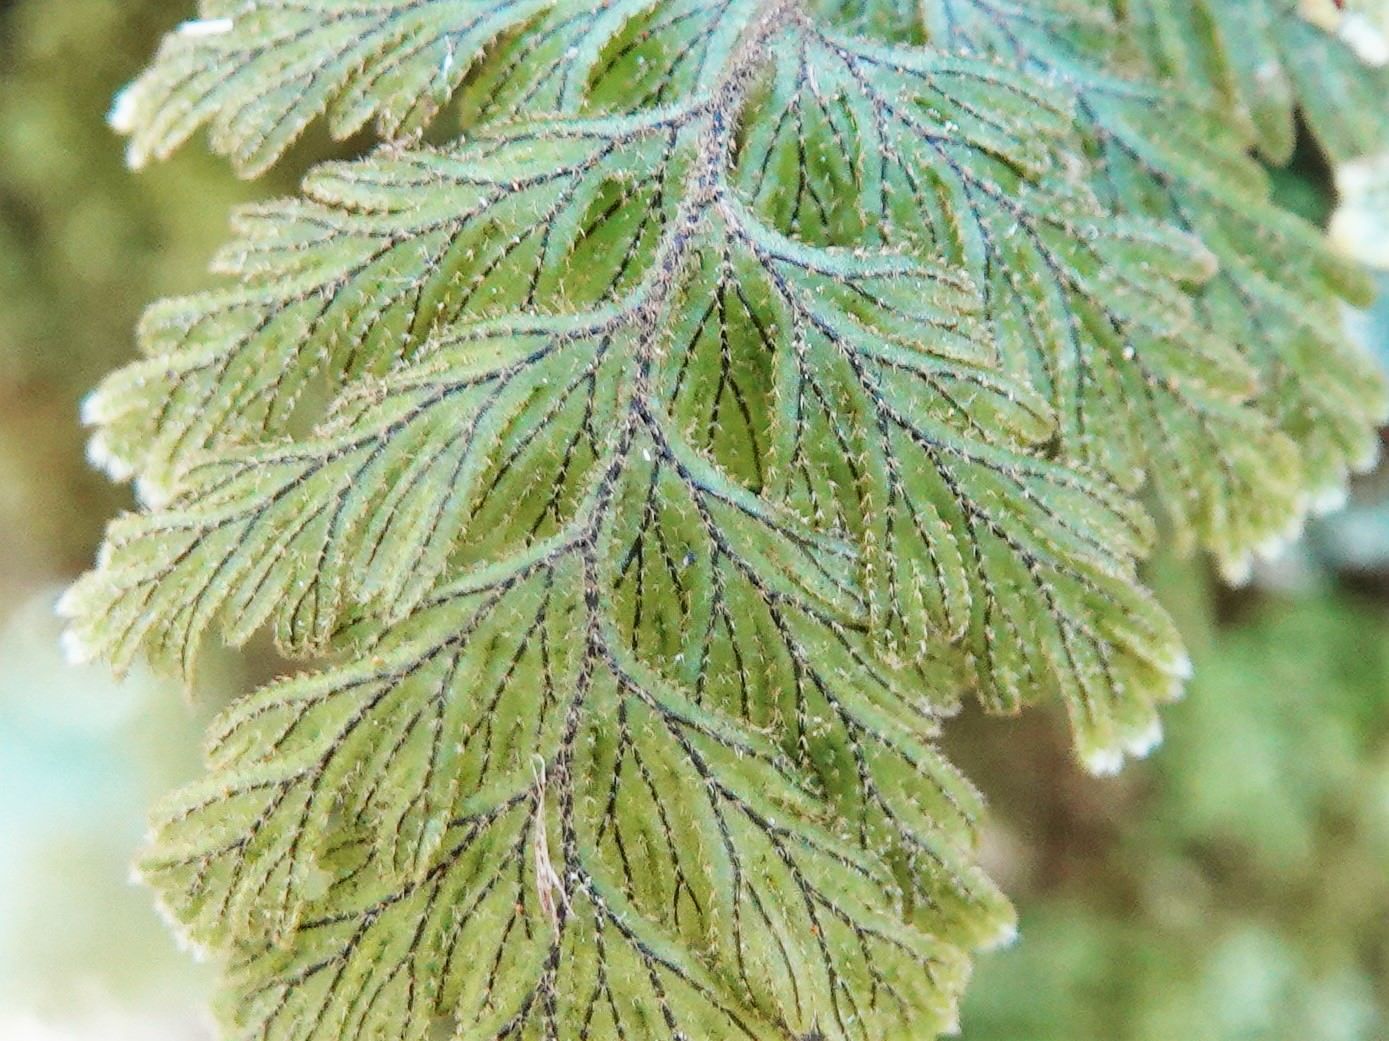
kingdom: Plantae
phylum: Tracheophyta
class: Polypodiopsida
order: Hymenophyllales
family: Hymenophyllaceae
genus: Hymenophyllum
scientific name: Hymenophyllum frankliniae
